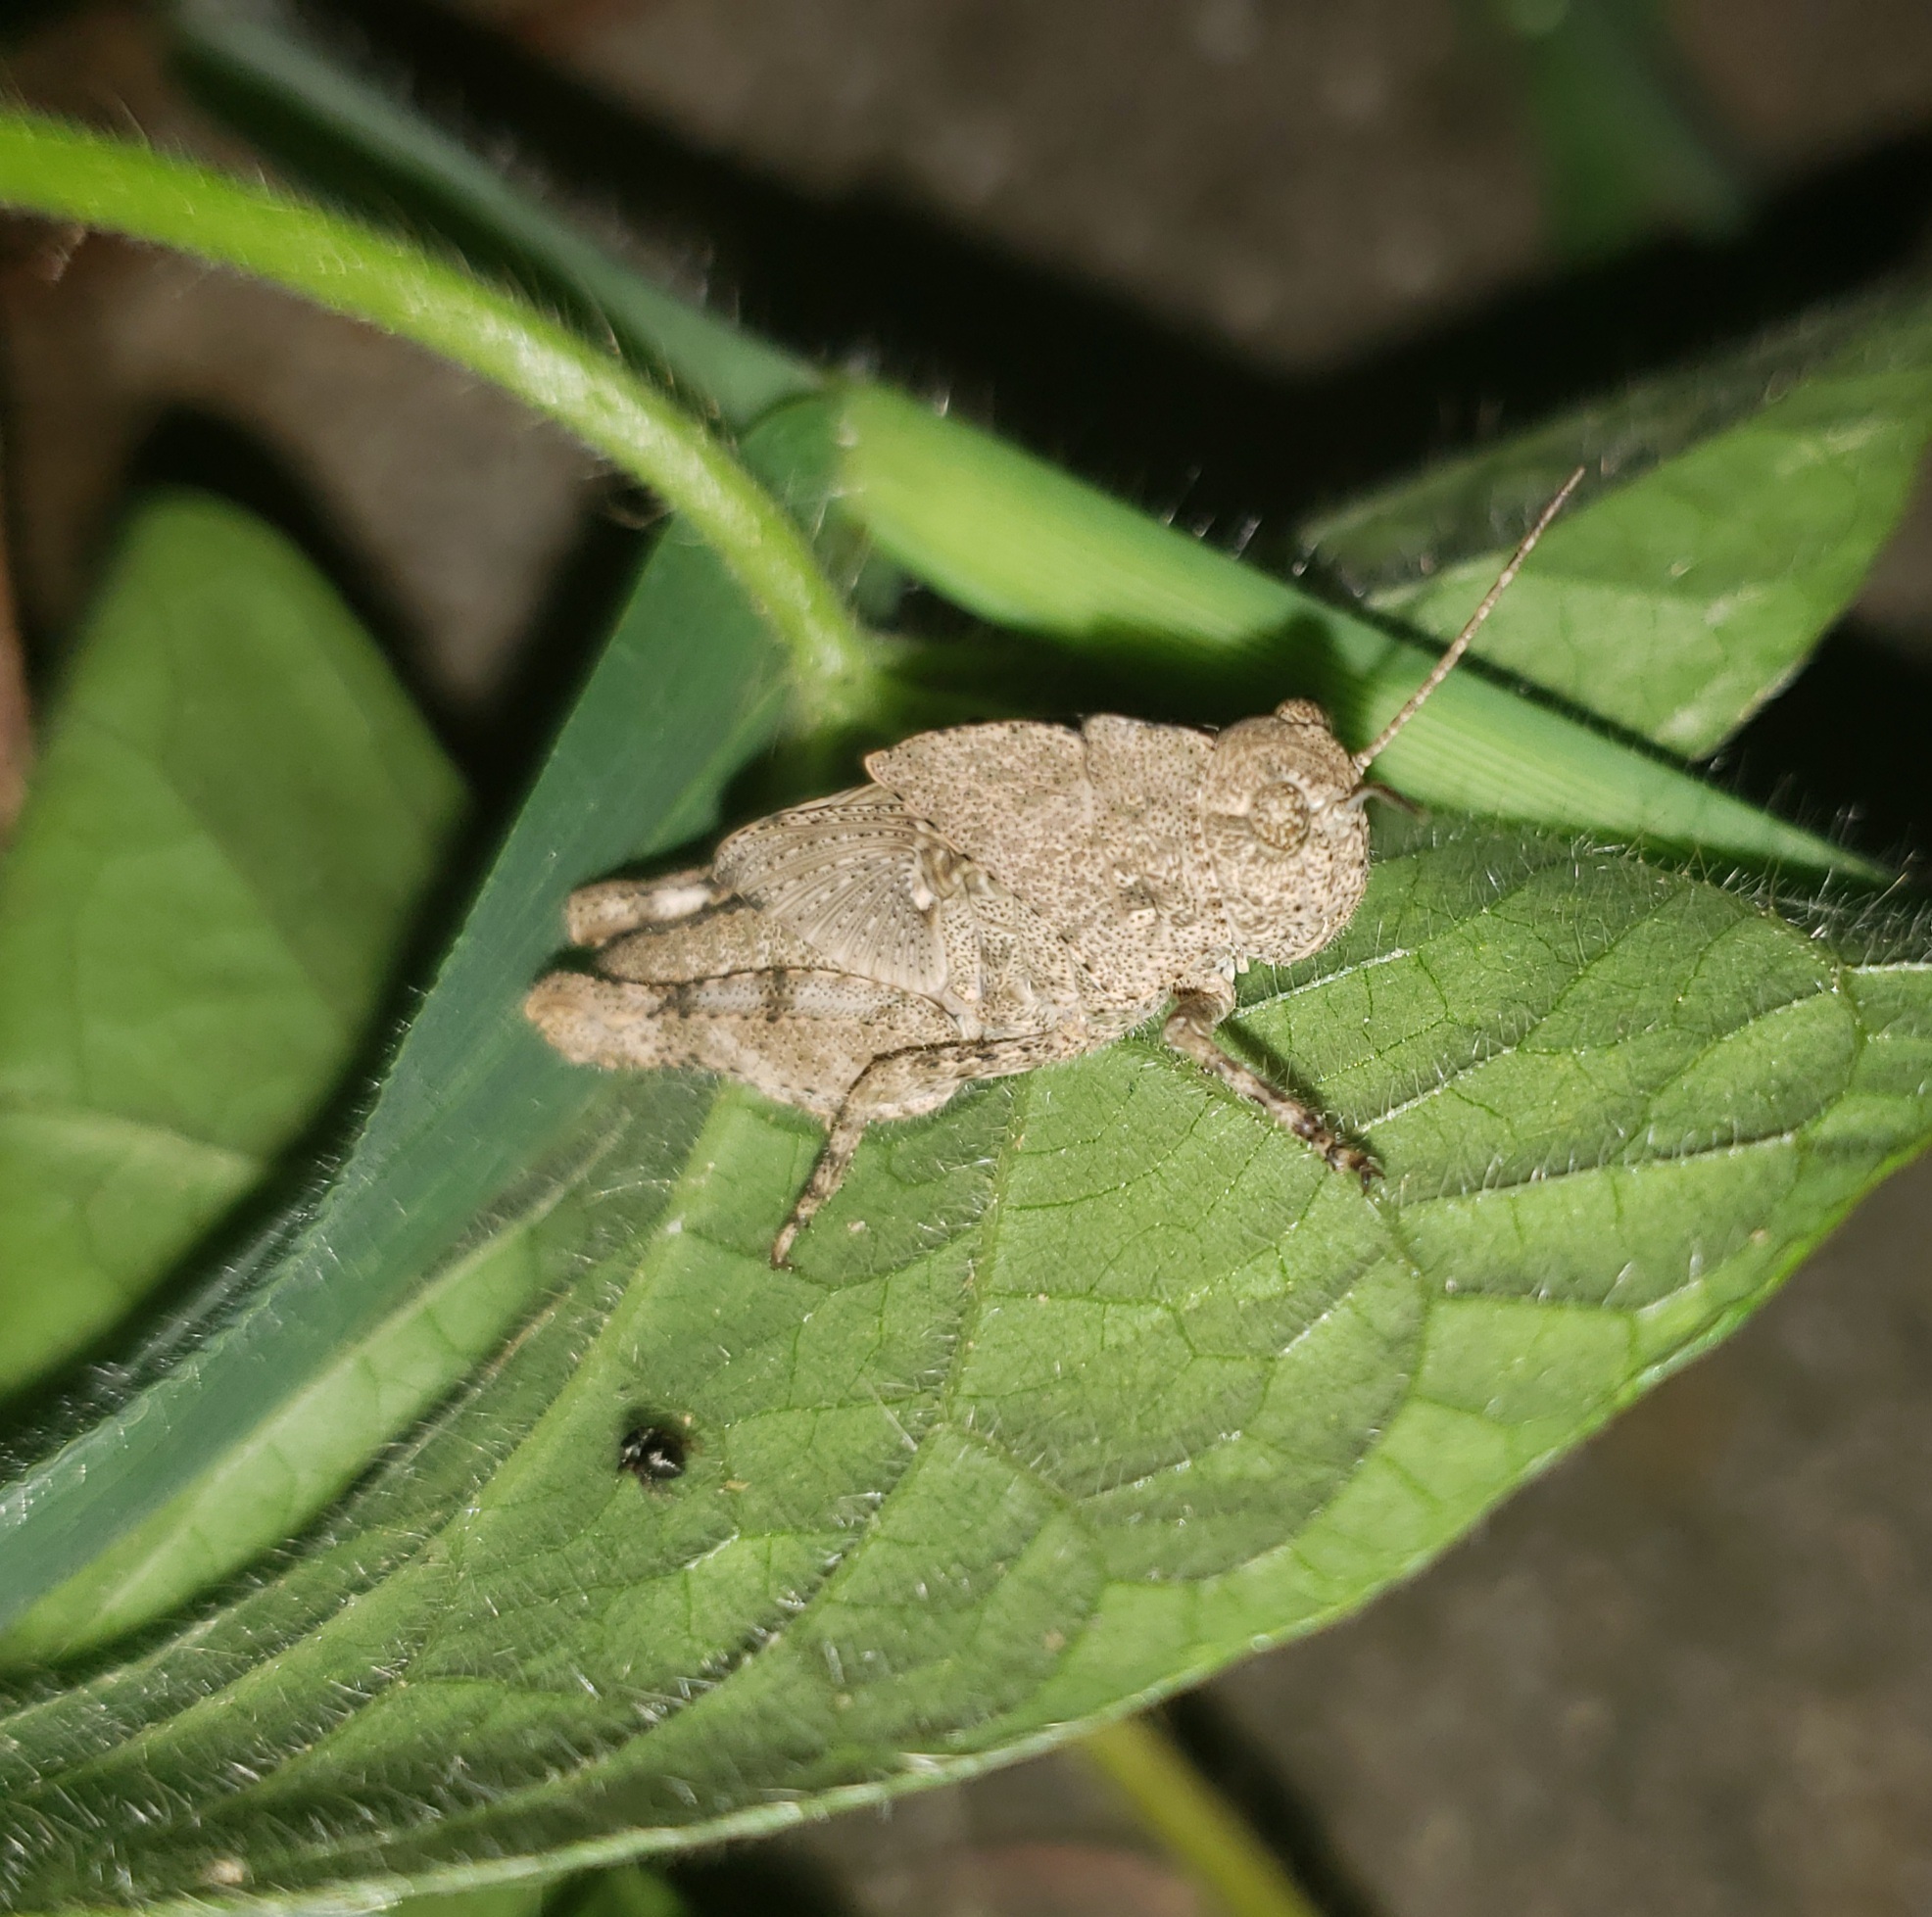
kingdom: Animalia
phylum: Arthropoda
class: Insecta
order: Orthoptera
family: Acrididae
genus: Dissosteira
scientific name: Dissosteira carolina
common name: Carolina grasshopper
